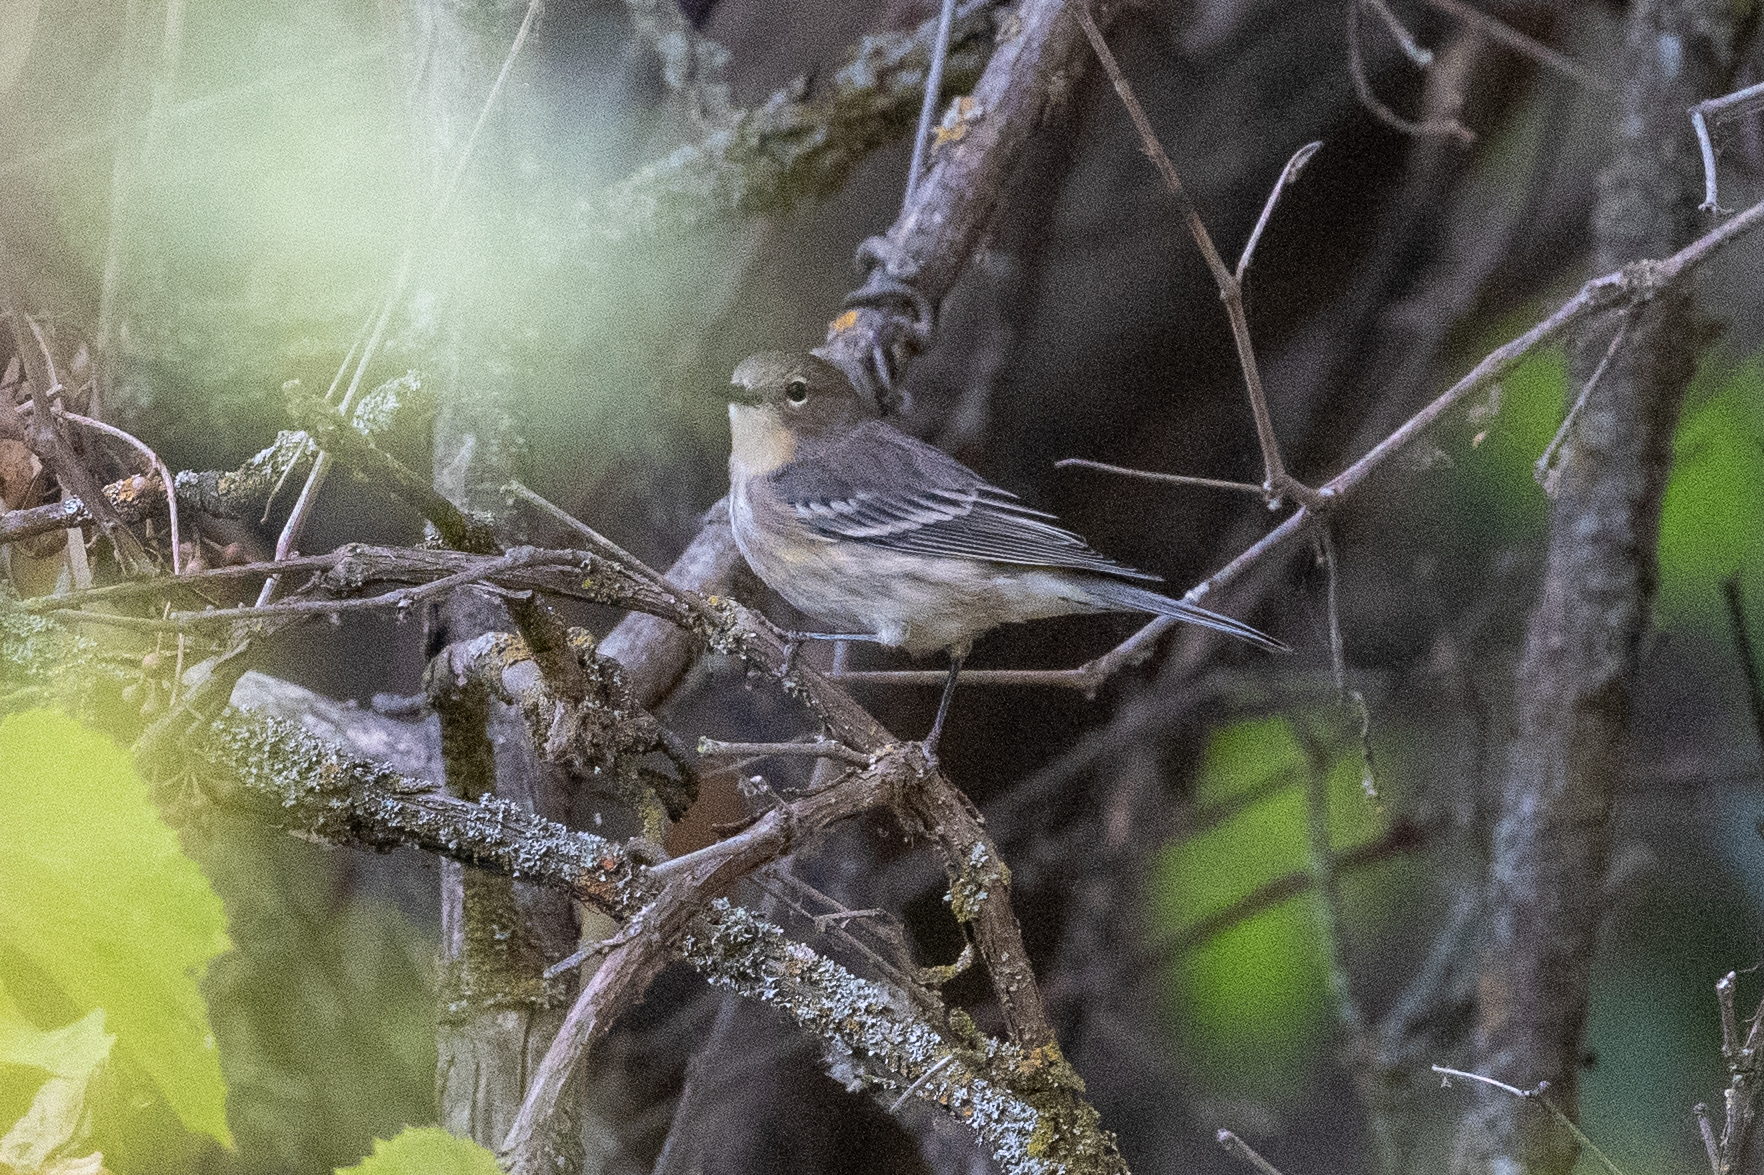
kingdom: Animalia
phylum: Chordata
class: Aves
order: Passeriformes
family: Parulidae
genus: Setophaga
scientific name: Setophaga coronata
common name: Myrtle warbler
